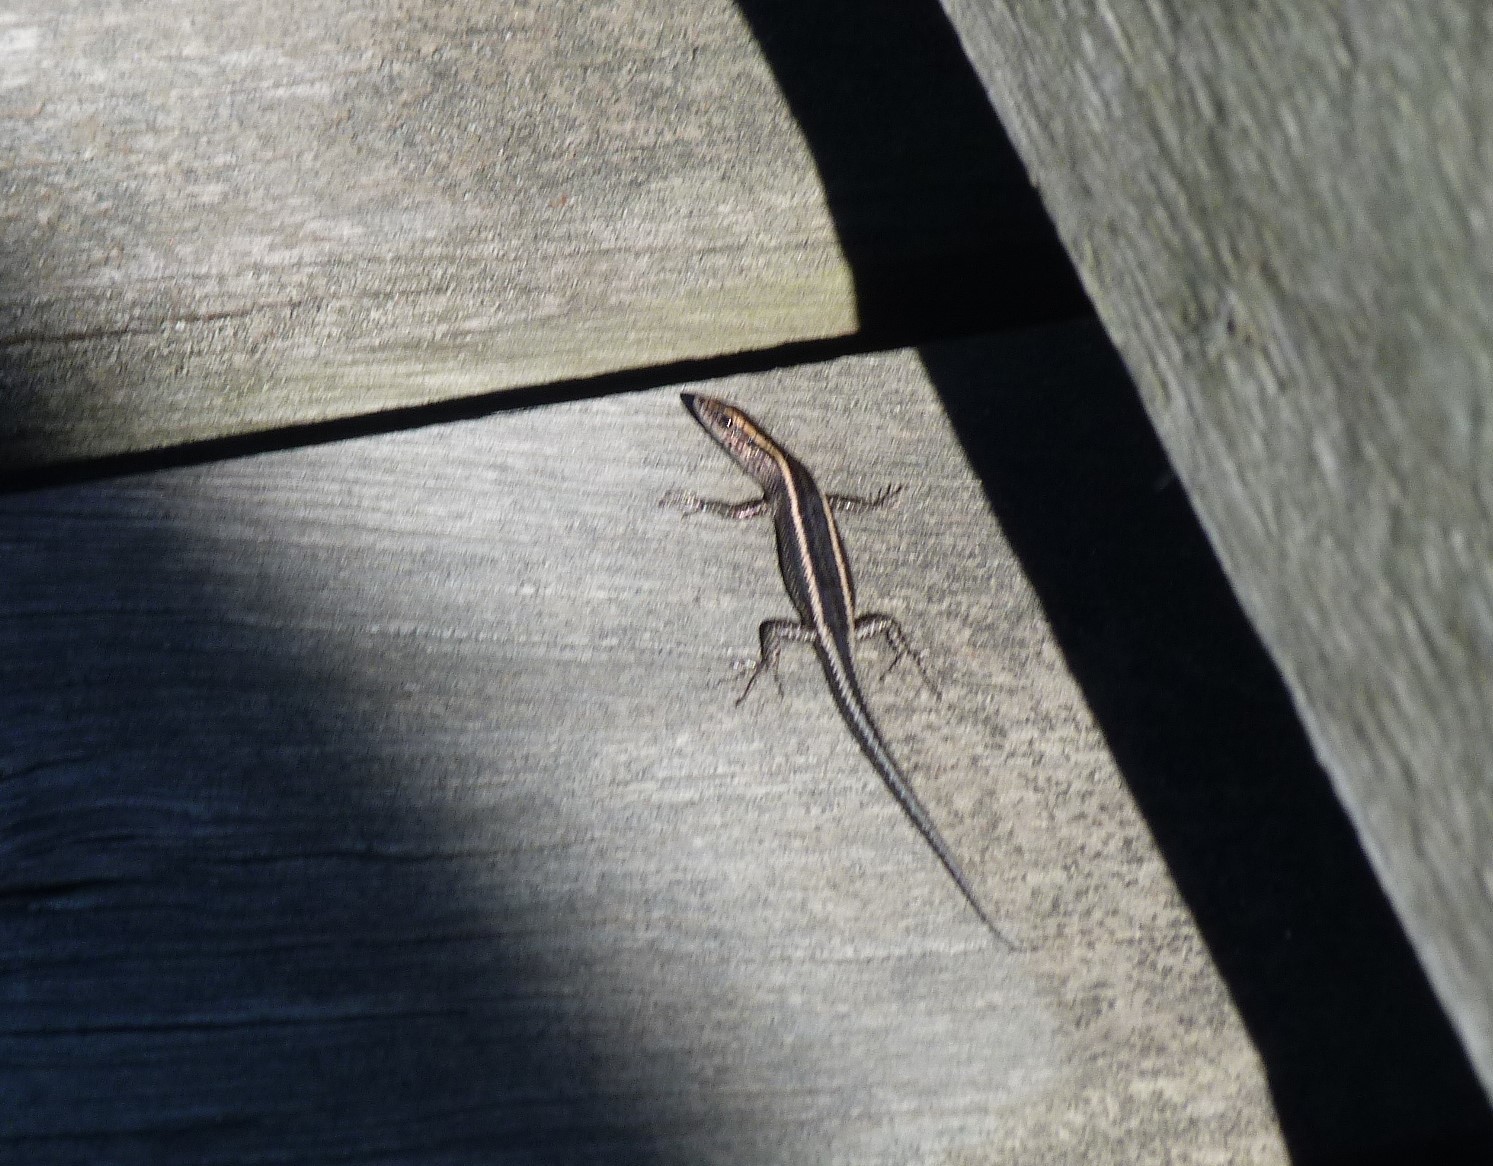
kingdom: Animalia
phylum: Chordata
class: Squamata
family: Scincidae
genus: Cryptoblepharus
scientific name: Cryptoblepharus pulcher
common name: Elegant snake-eyed skink
